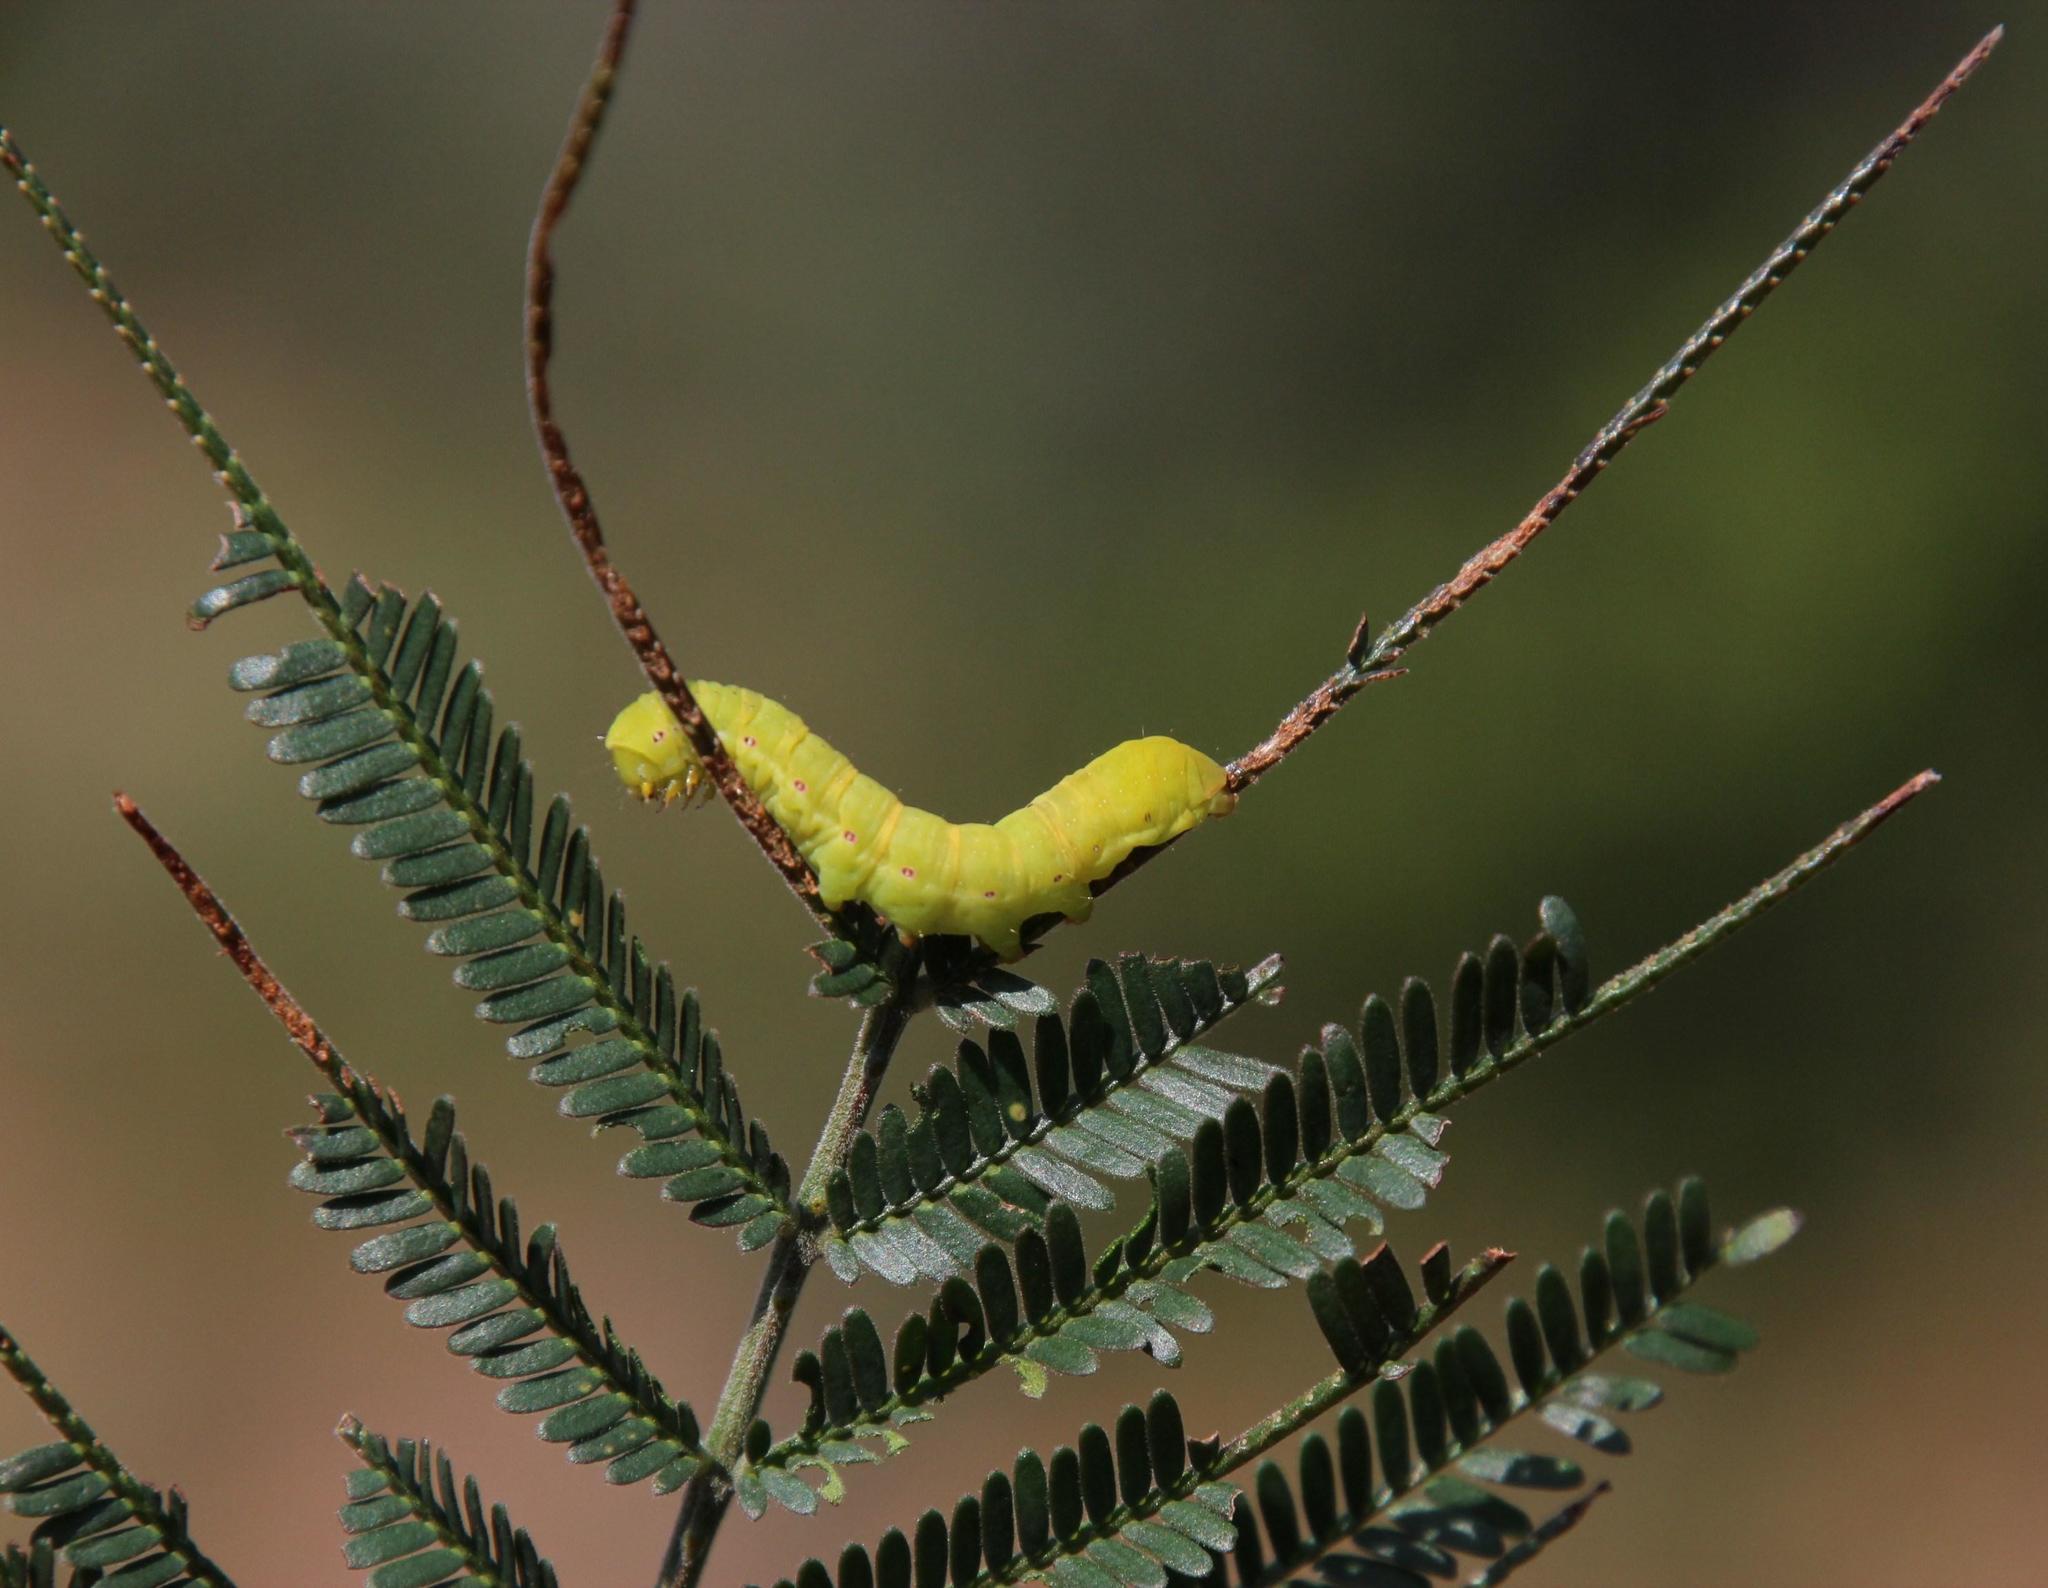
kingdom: Plantae
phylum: Tracheophyta
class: Magnoliopsida
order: Fabales
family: Fabaceae
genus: Acacia
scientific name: Acacia mearnsii
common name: Black wattle
